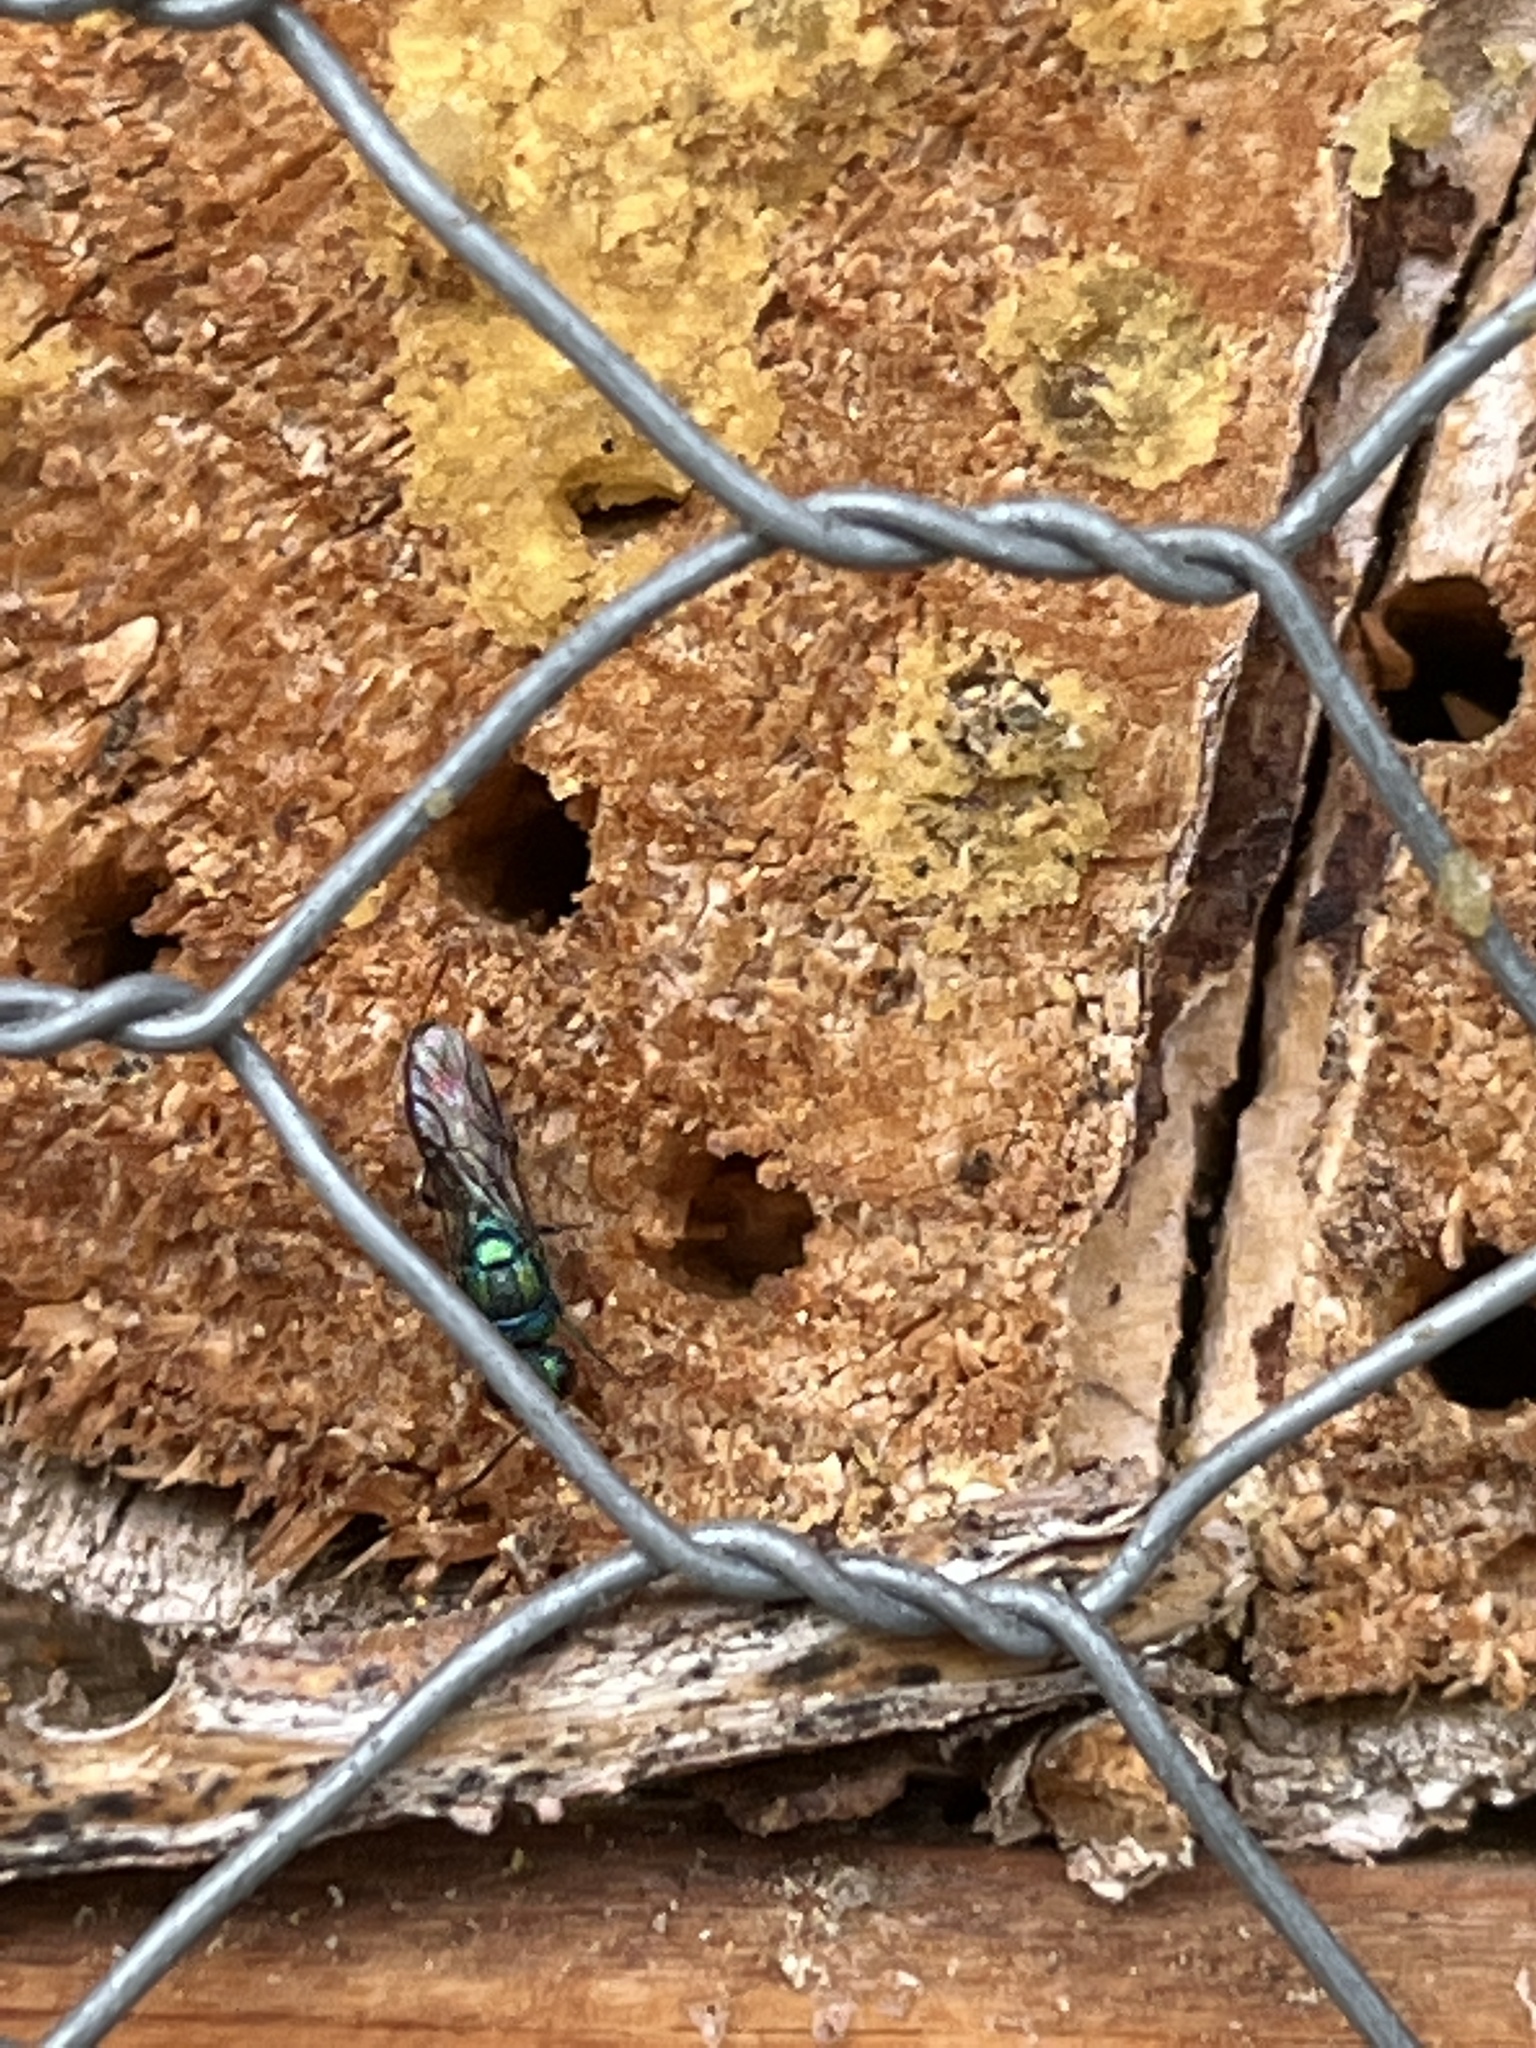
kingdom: Animalia
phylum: Arthropoda
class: Insecta
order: Hymenoptera
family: Chrysididae
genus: Chrysis
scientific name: Chrysis gracillima
